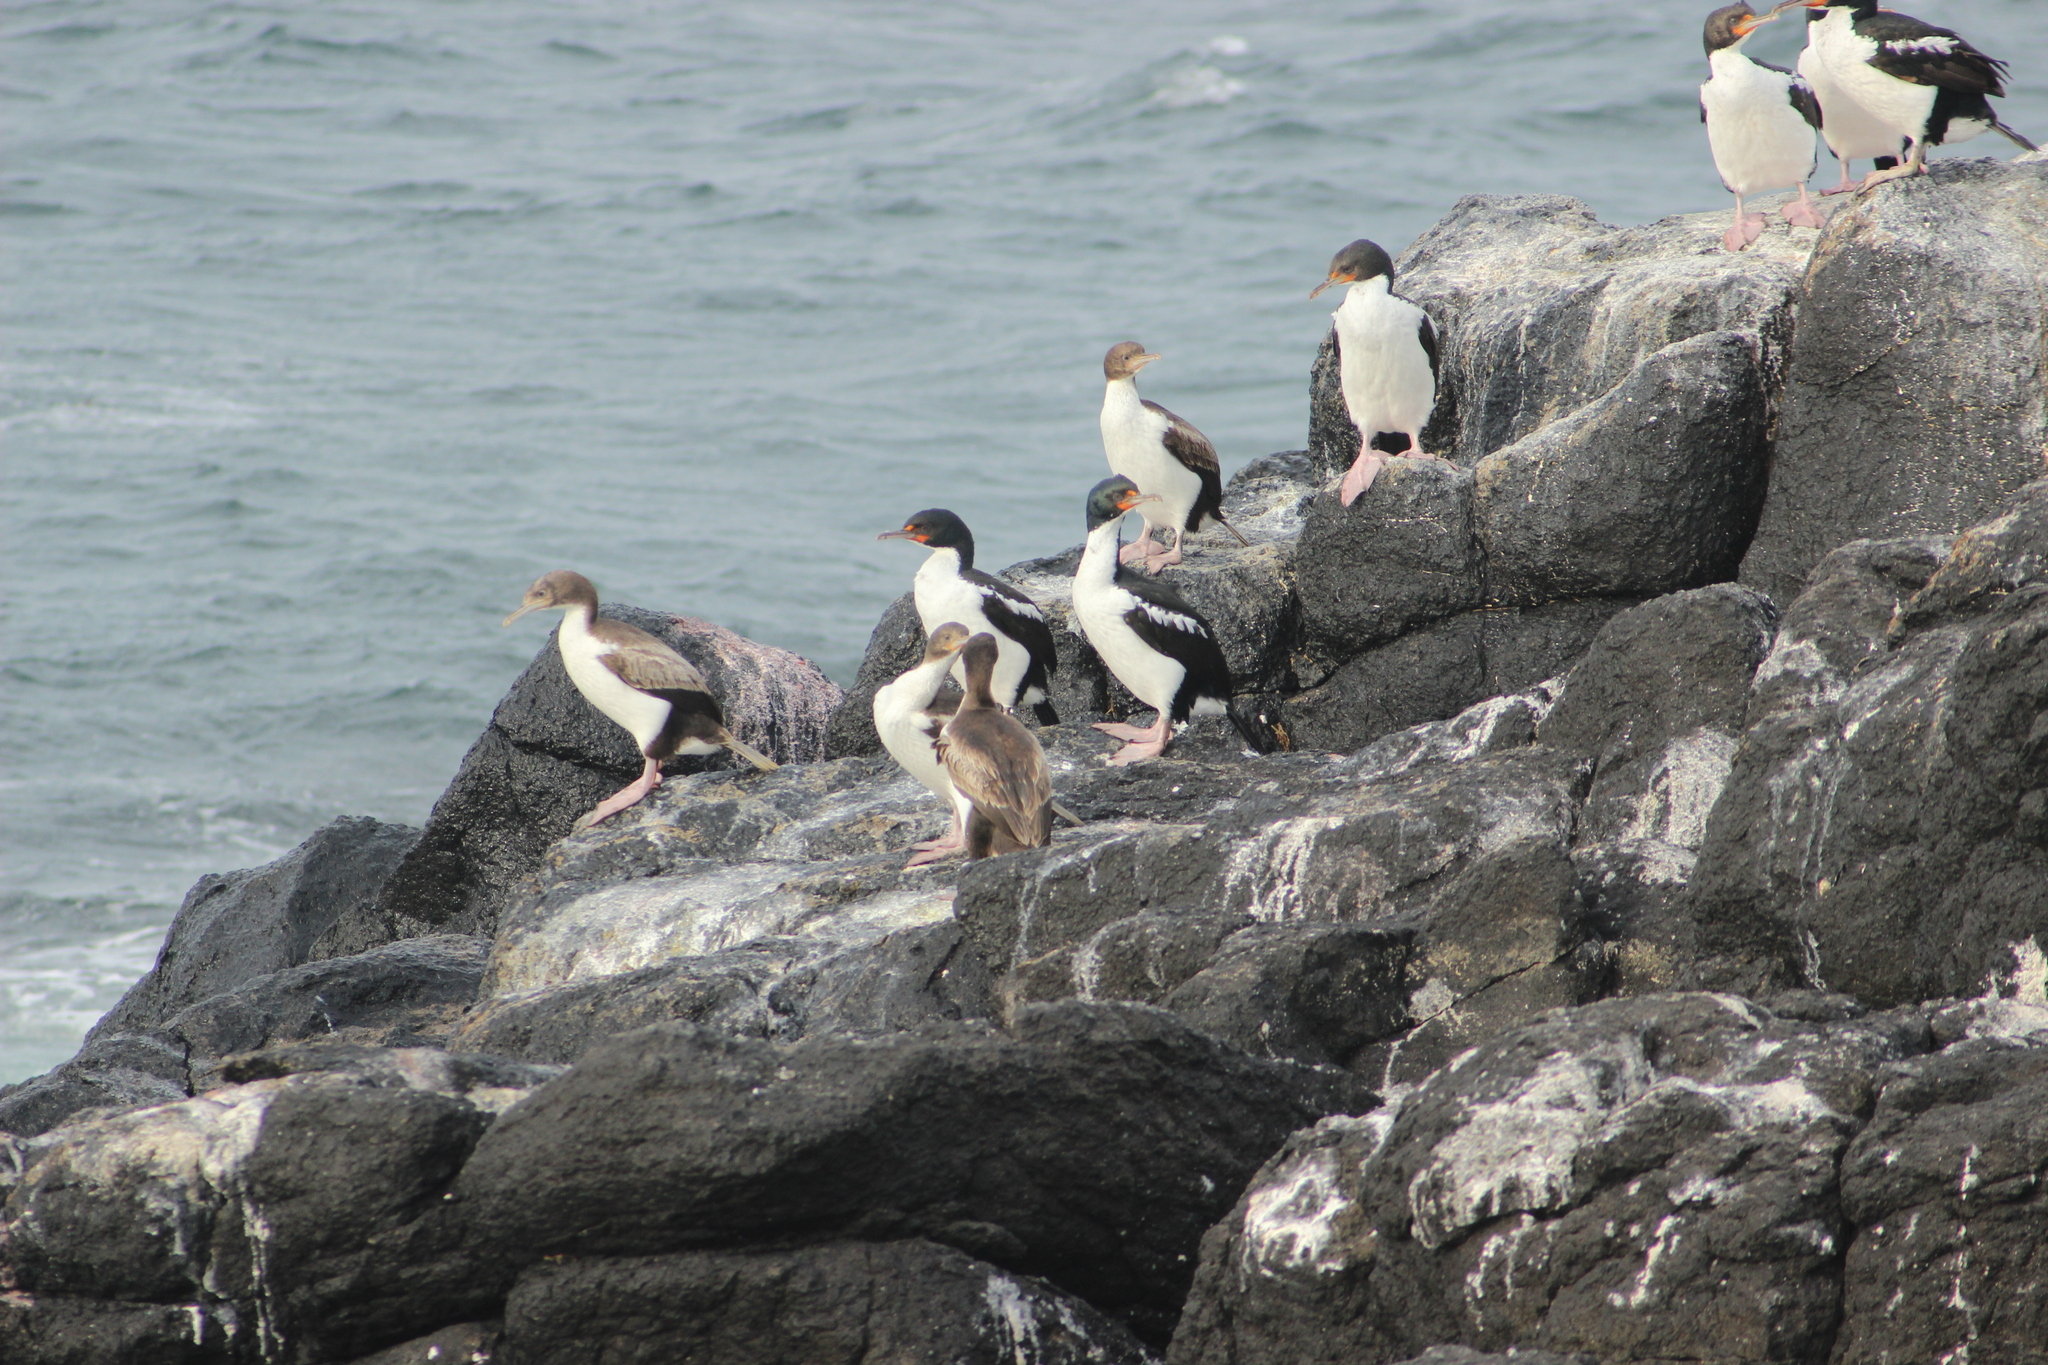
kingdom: Animalia
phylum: Chordata
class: Aves
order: Suliformes
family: Phalacrocoracidae
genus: Leucocarbo
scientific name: Leucocarbo onslowi
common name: Chatham shag
